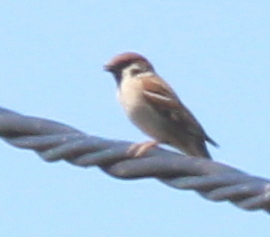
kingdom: Animalia
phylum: Chordata
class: Aves
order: Passeriformes
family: Passeridae
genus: Passer
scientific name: Passer montanus
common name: Eurasian tree sparrow
